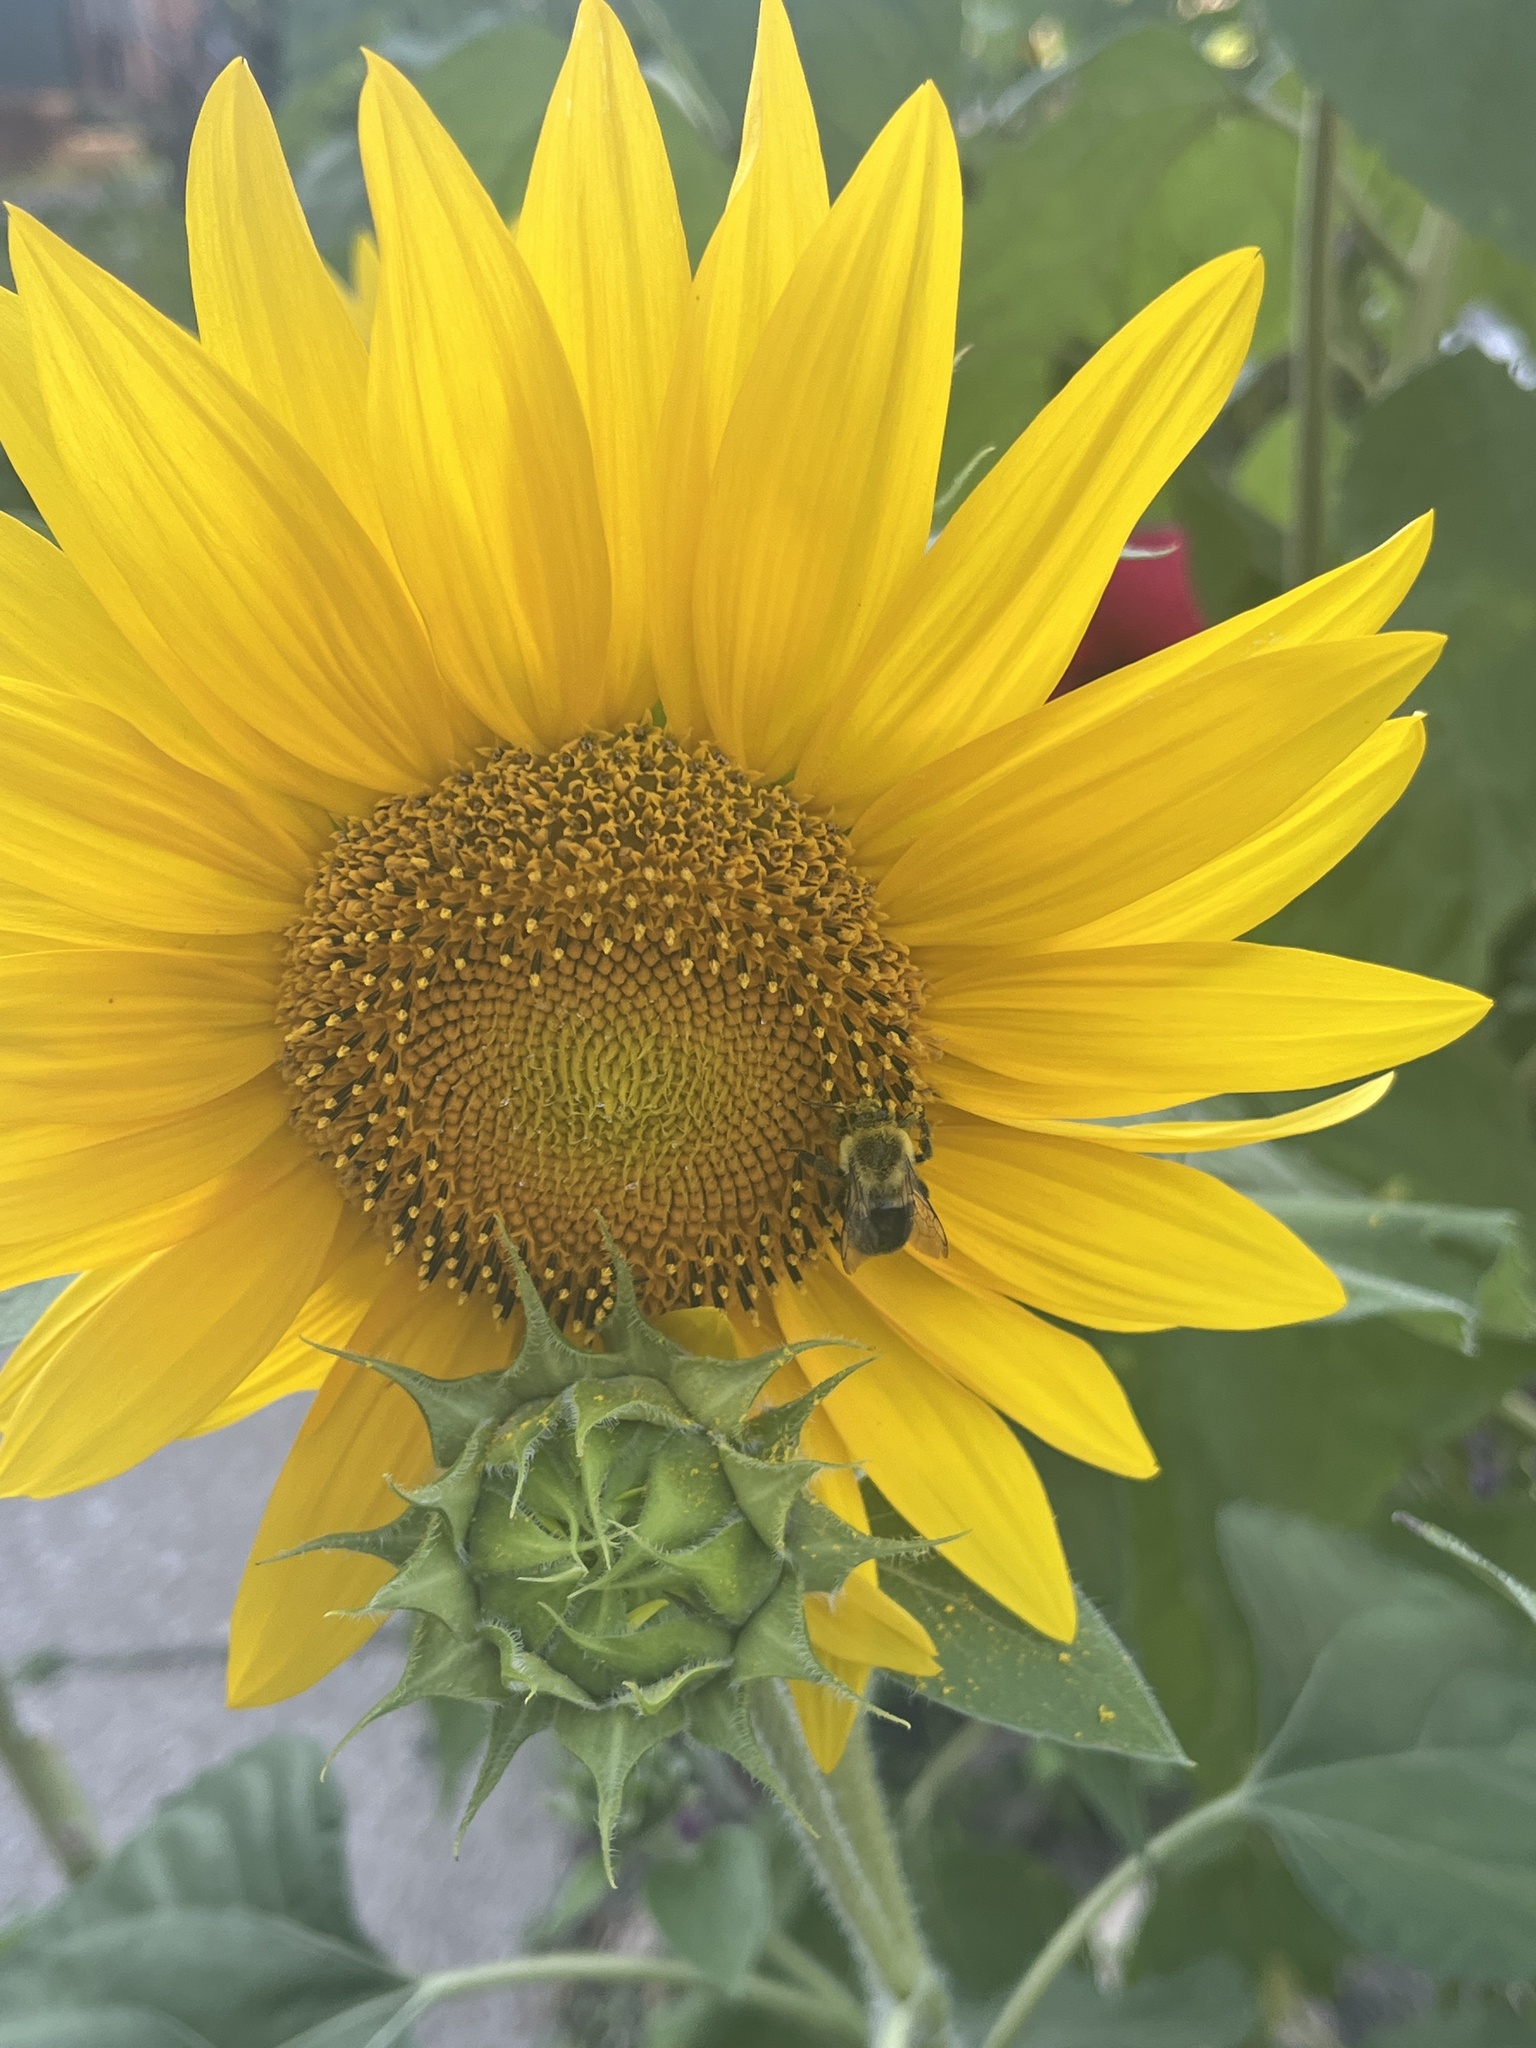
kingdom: Animalia
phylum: Arthropoda
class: Insecta
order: Hymenoptera
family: Apidae
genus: Bombus
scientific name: Bombus impatiens
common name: Common eastern bumble bee
